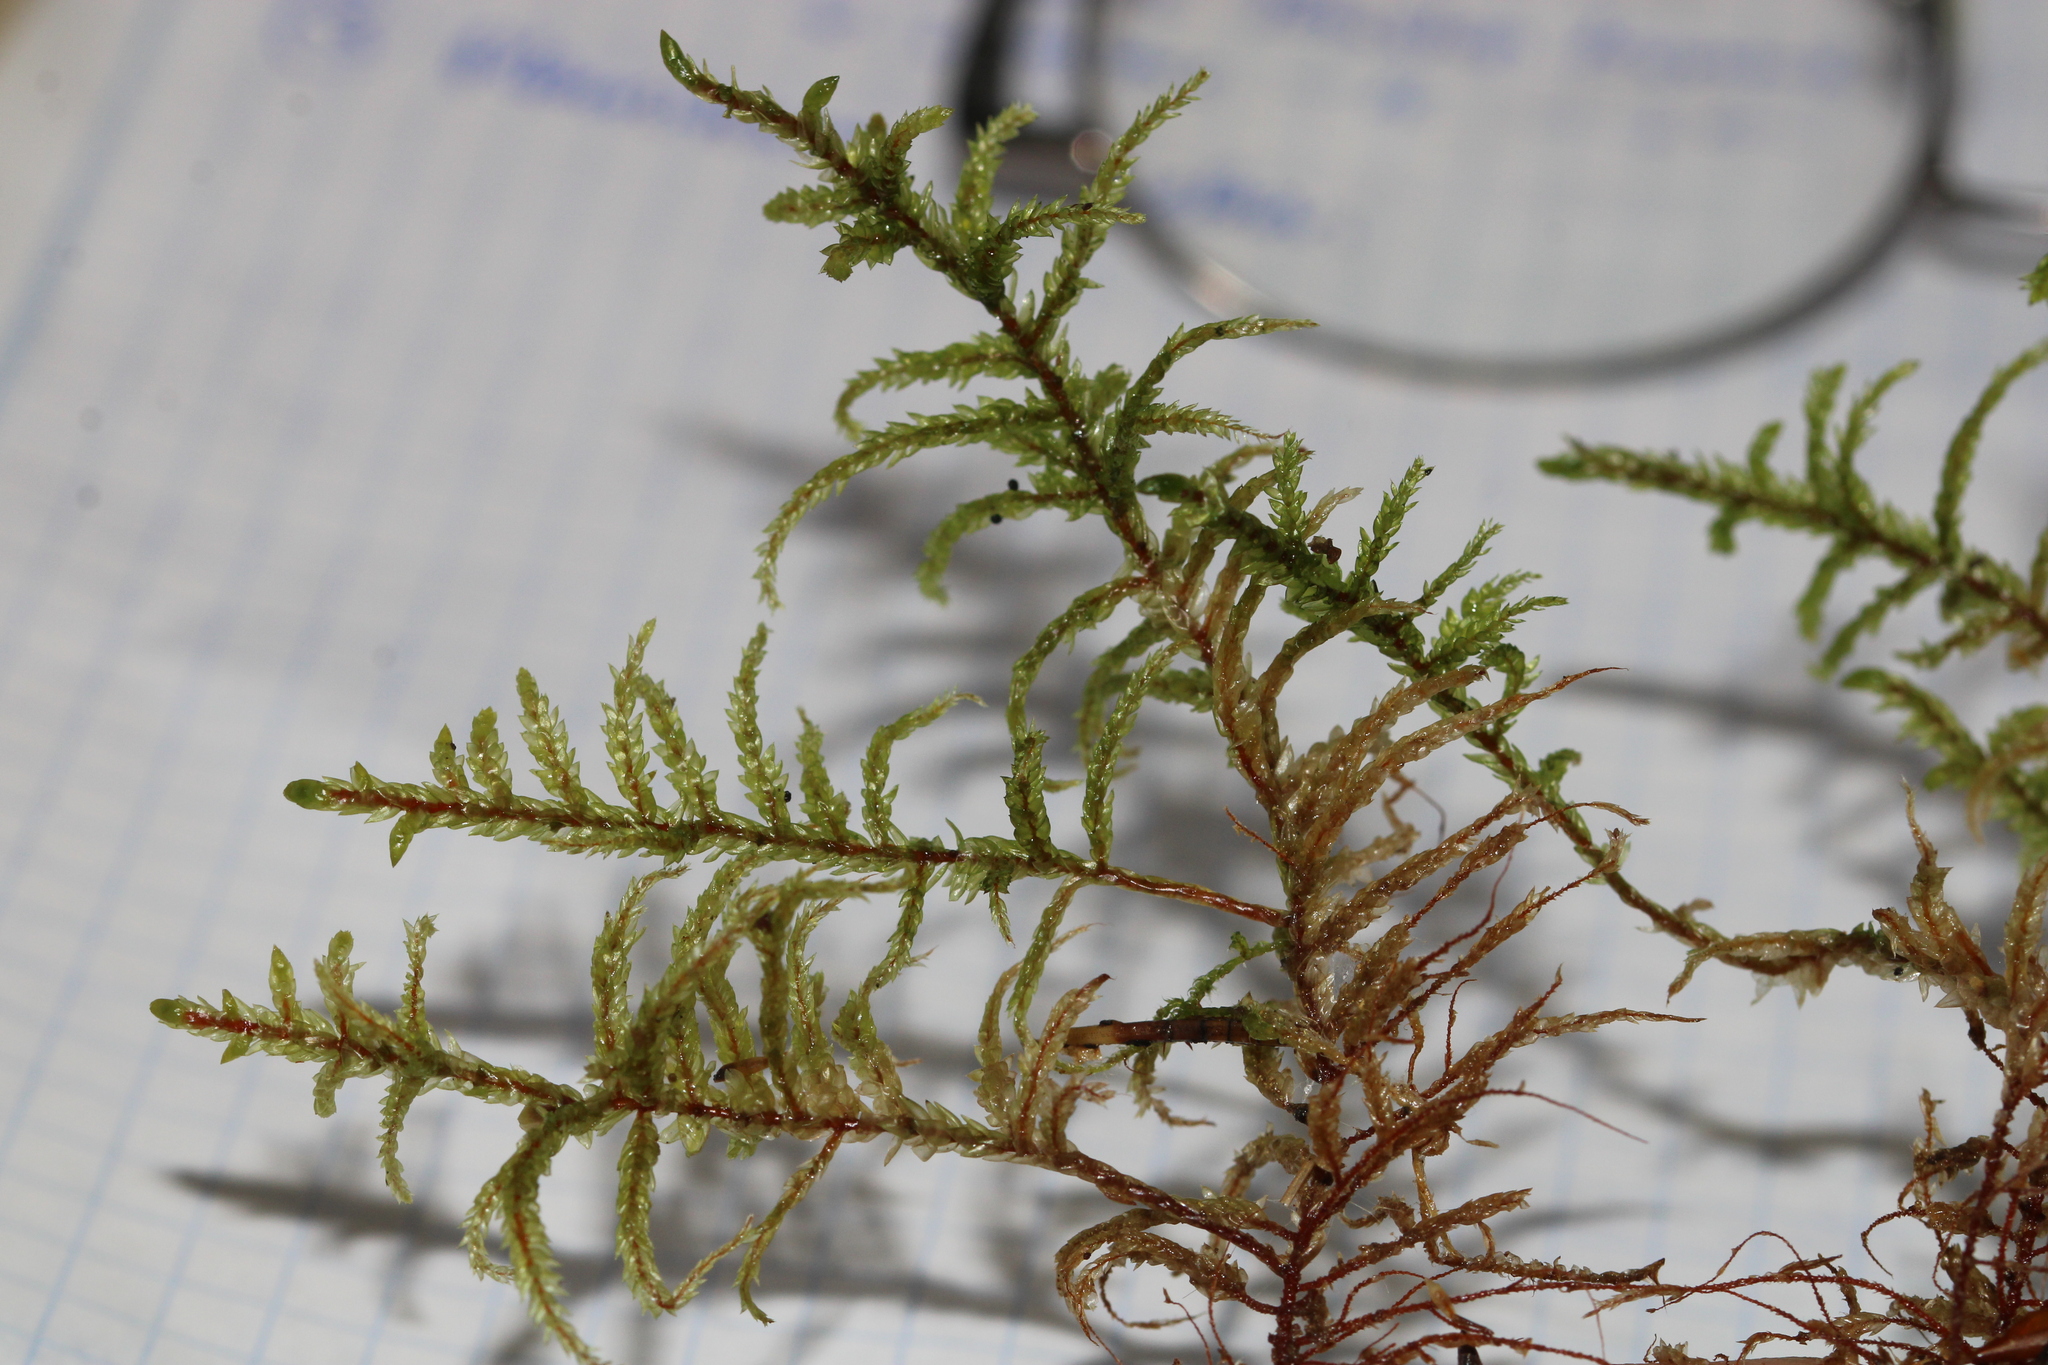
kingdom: Plantae
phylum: Bryophyta
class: Bryopsida
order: Hypnales
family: Hylocomiaceae
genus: Pleurozium
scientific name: Pleurozium schreberi
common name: Red-stemmed feather moss
